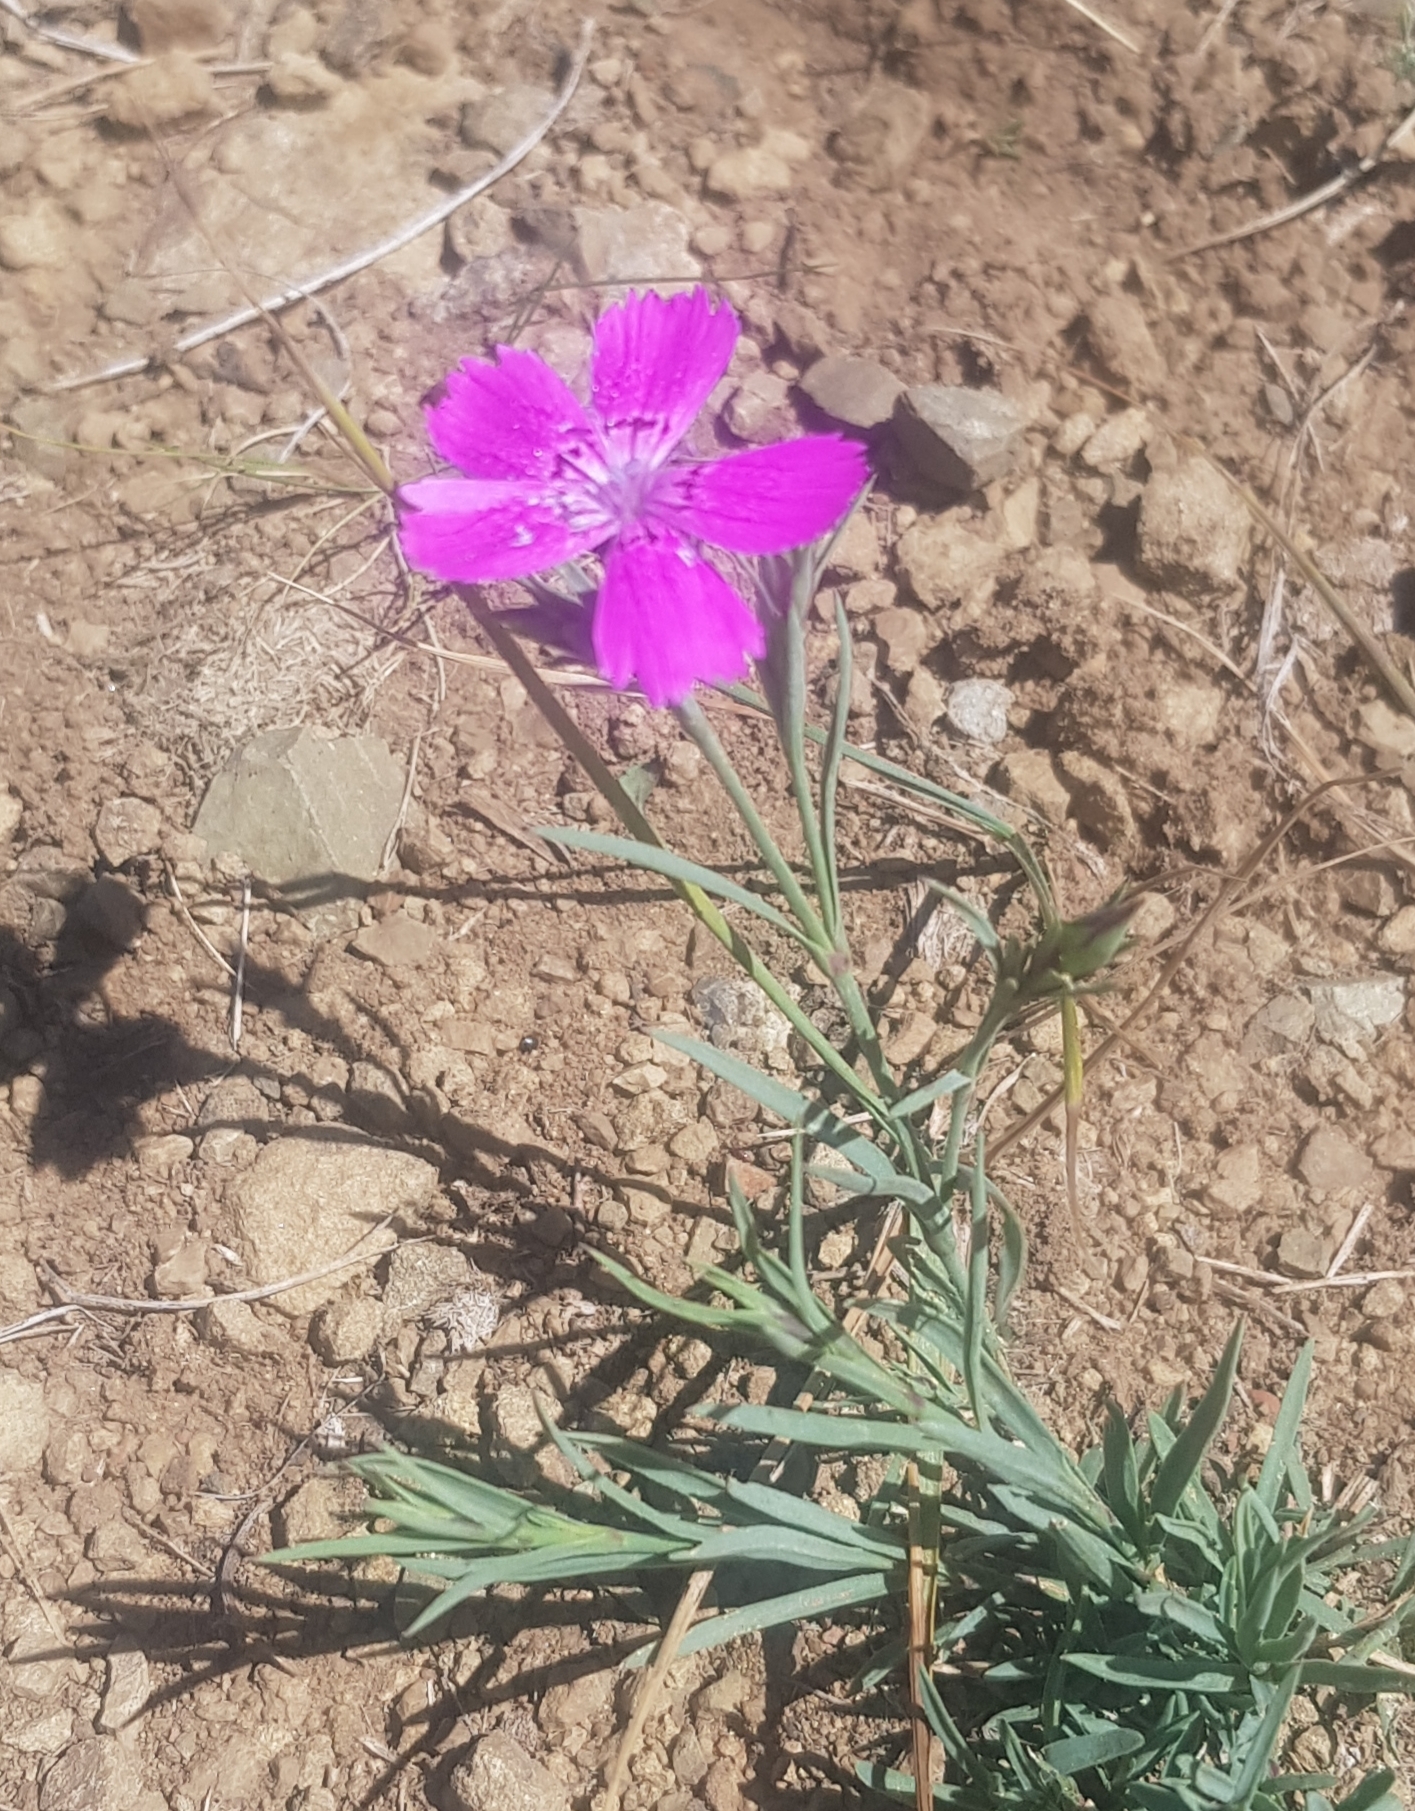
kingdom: Plantae
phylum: Tracheophyta
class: Magnoliopsida
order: Caryophyllales
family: Caryophyllaceae
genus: Dianthus
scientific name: Dianthus chinensis
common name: Rainbow pink
